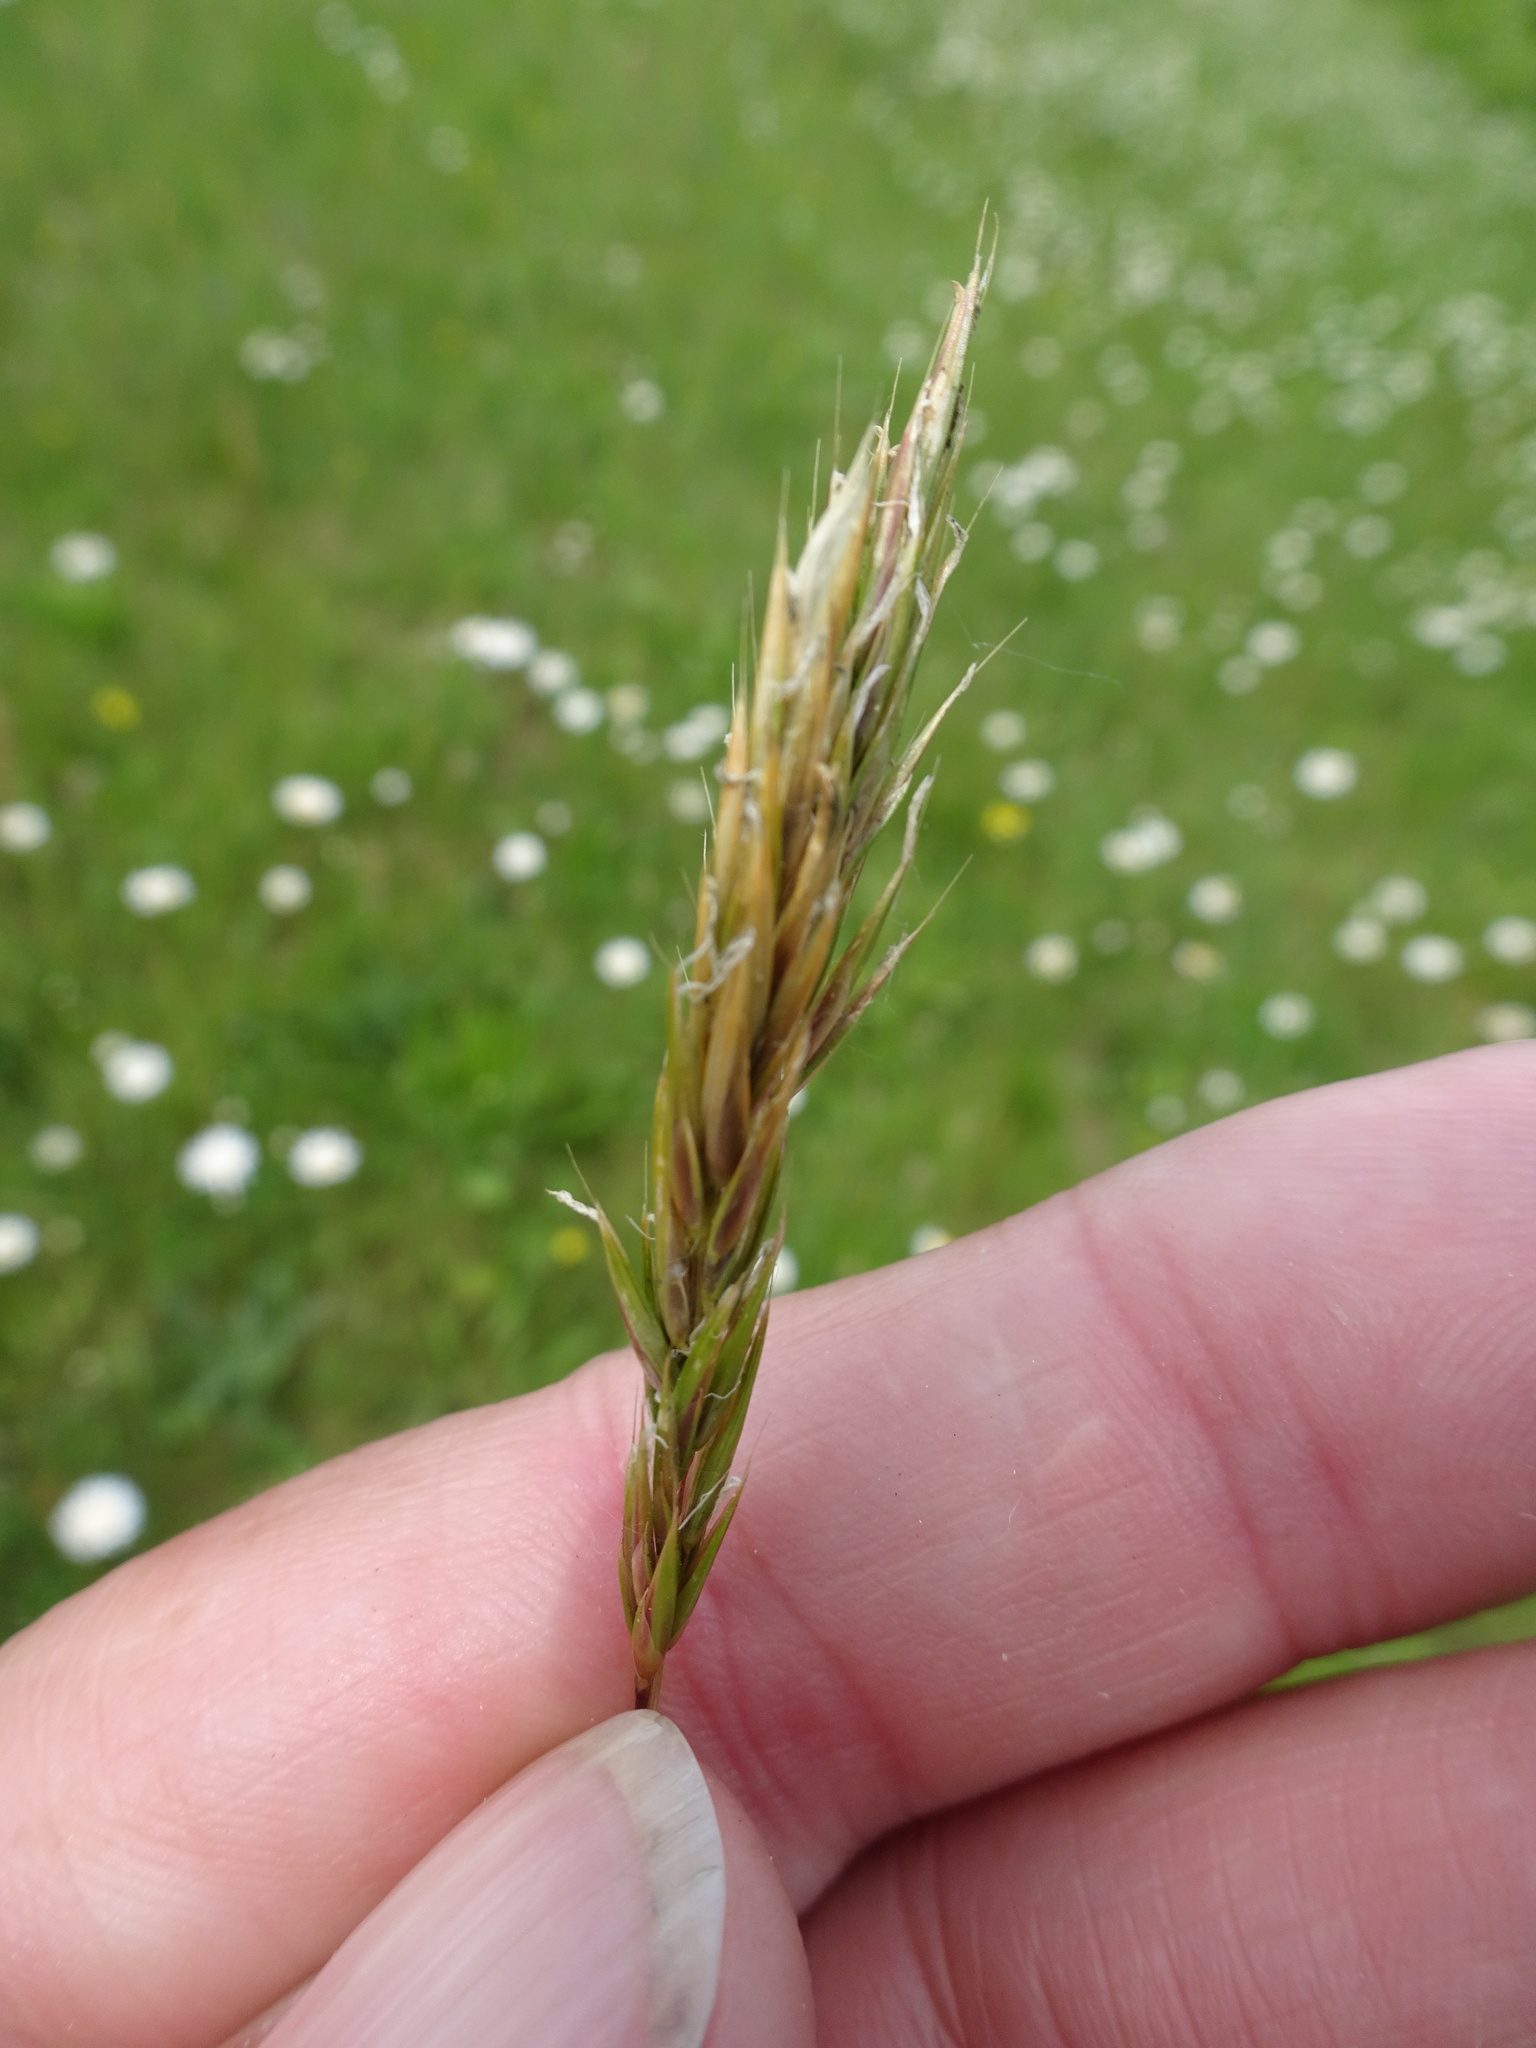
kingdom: Plantae
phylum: Tracheophyta
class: Liliopsida
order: Poales
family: Poaceae
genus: Anthoxanthum
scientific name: Anthoxanthum odoratum
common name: Sweet vernalgrass
